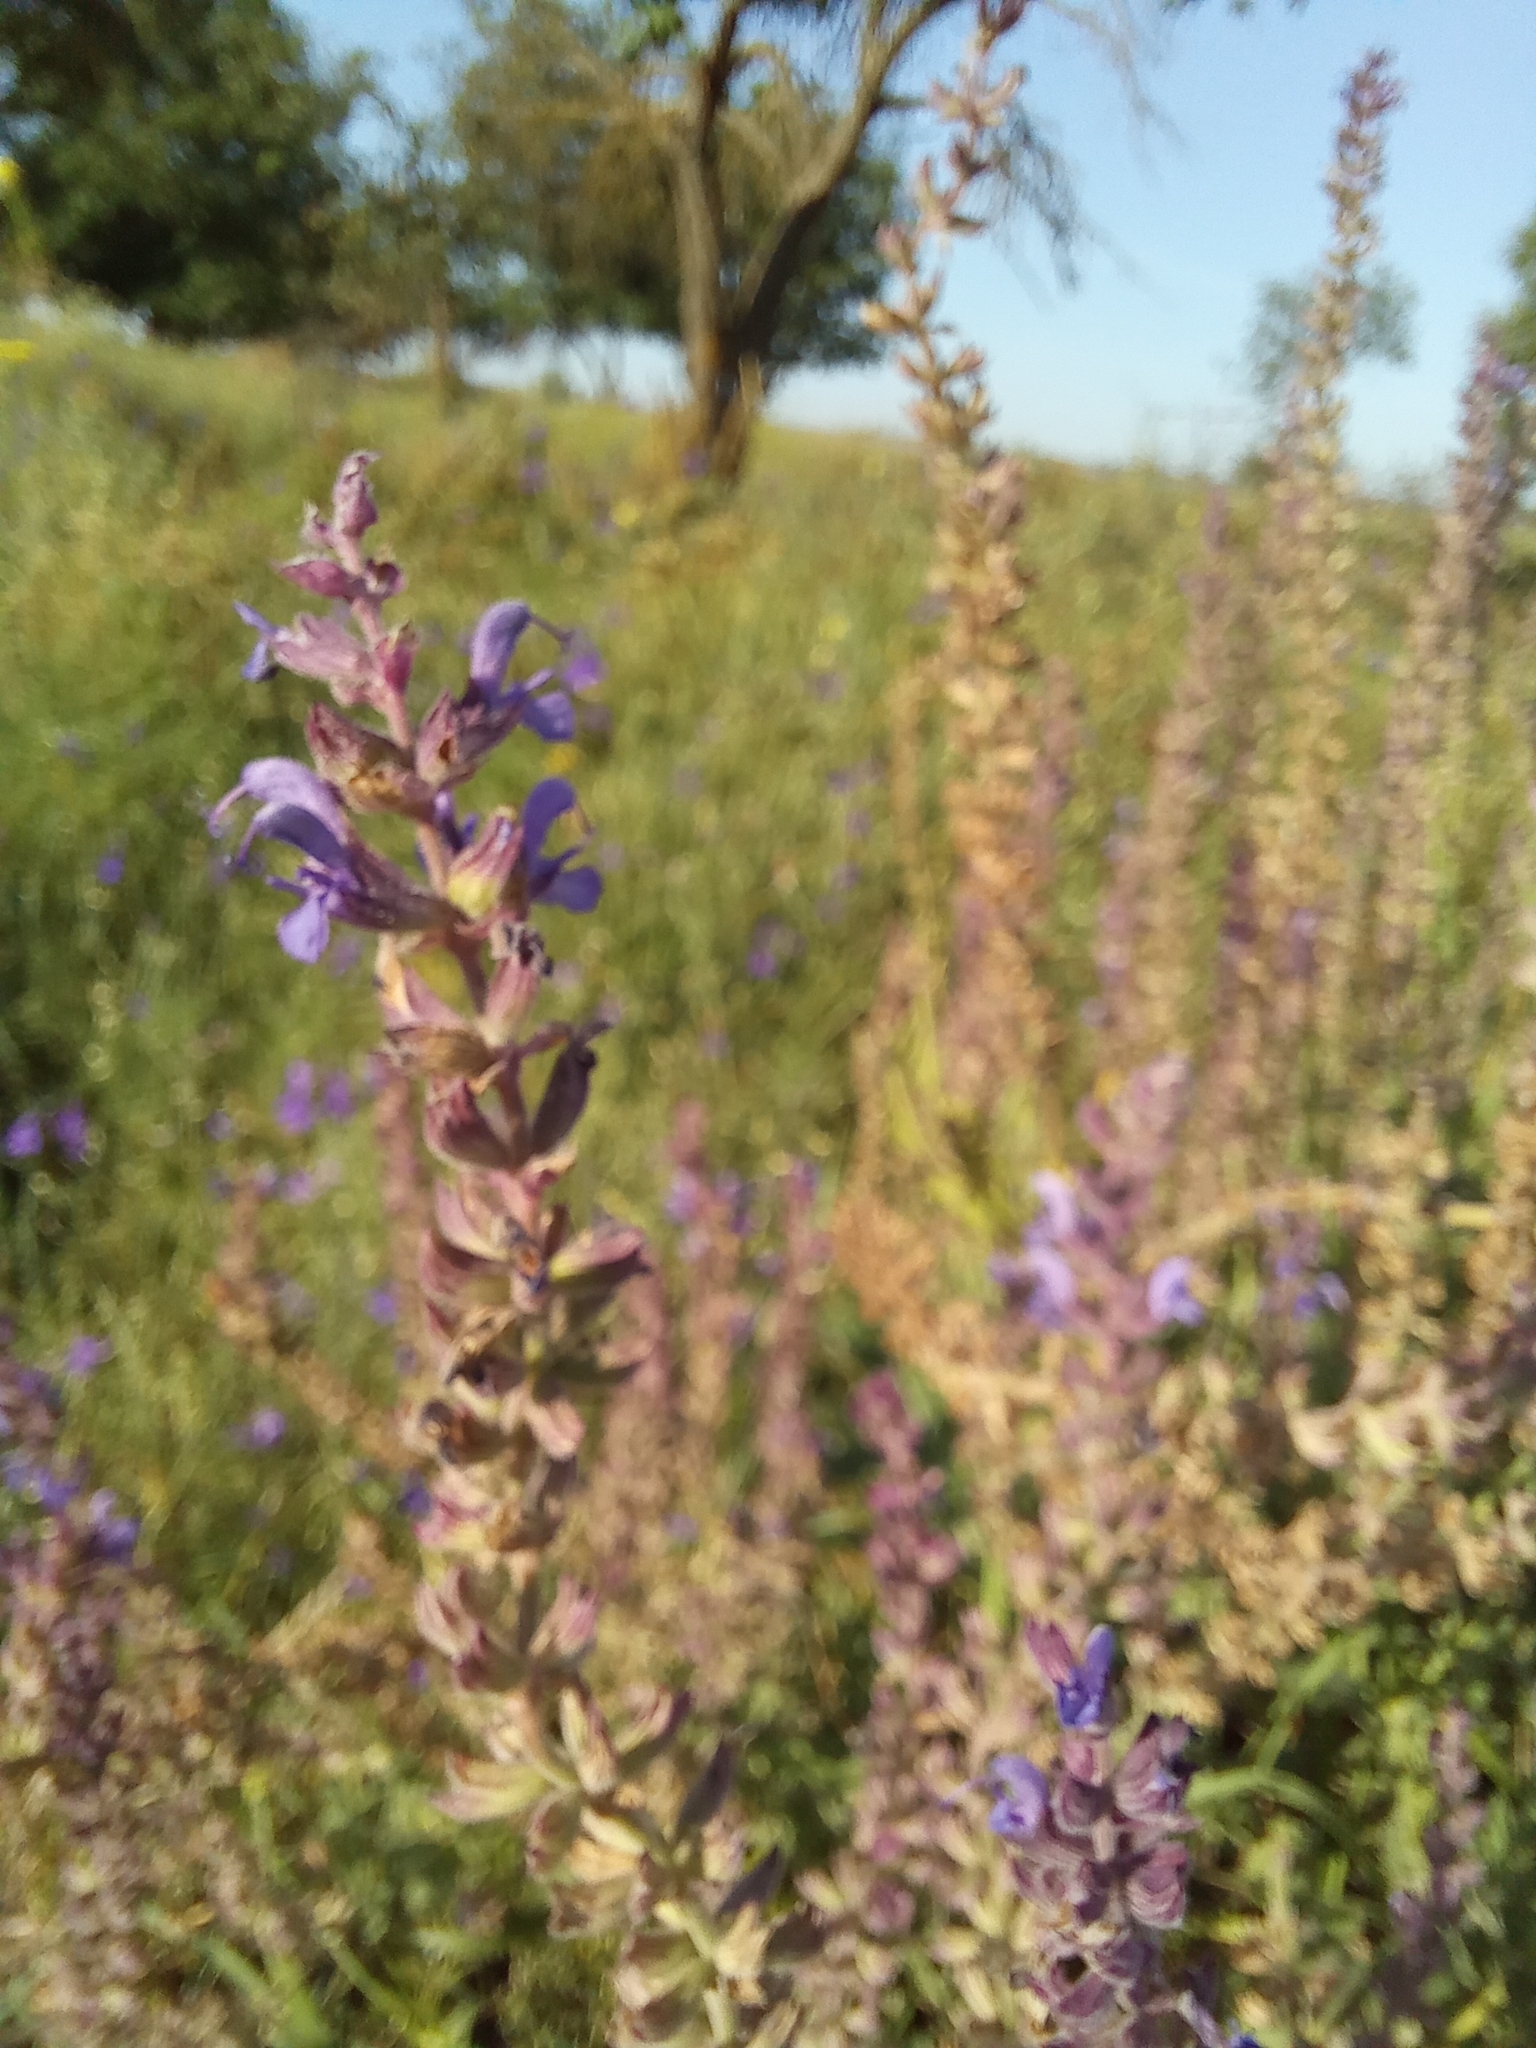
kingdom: Plantae
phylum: Tracheophyta
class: Magnoliopsida
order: Lamiales
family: Lamiaceae
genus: Salvia
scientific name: Salvia nemorosa
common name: Balkan clary
